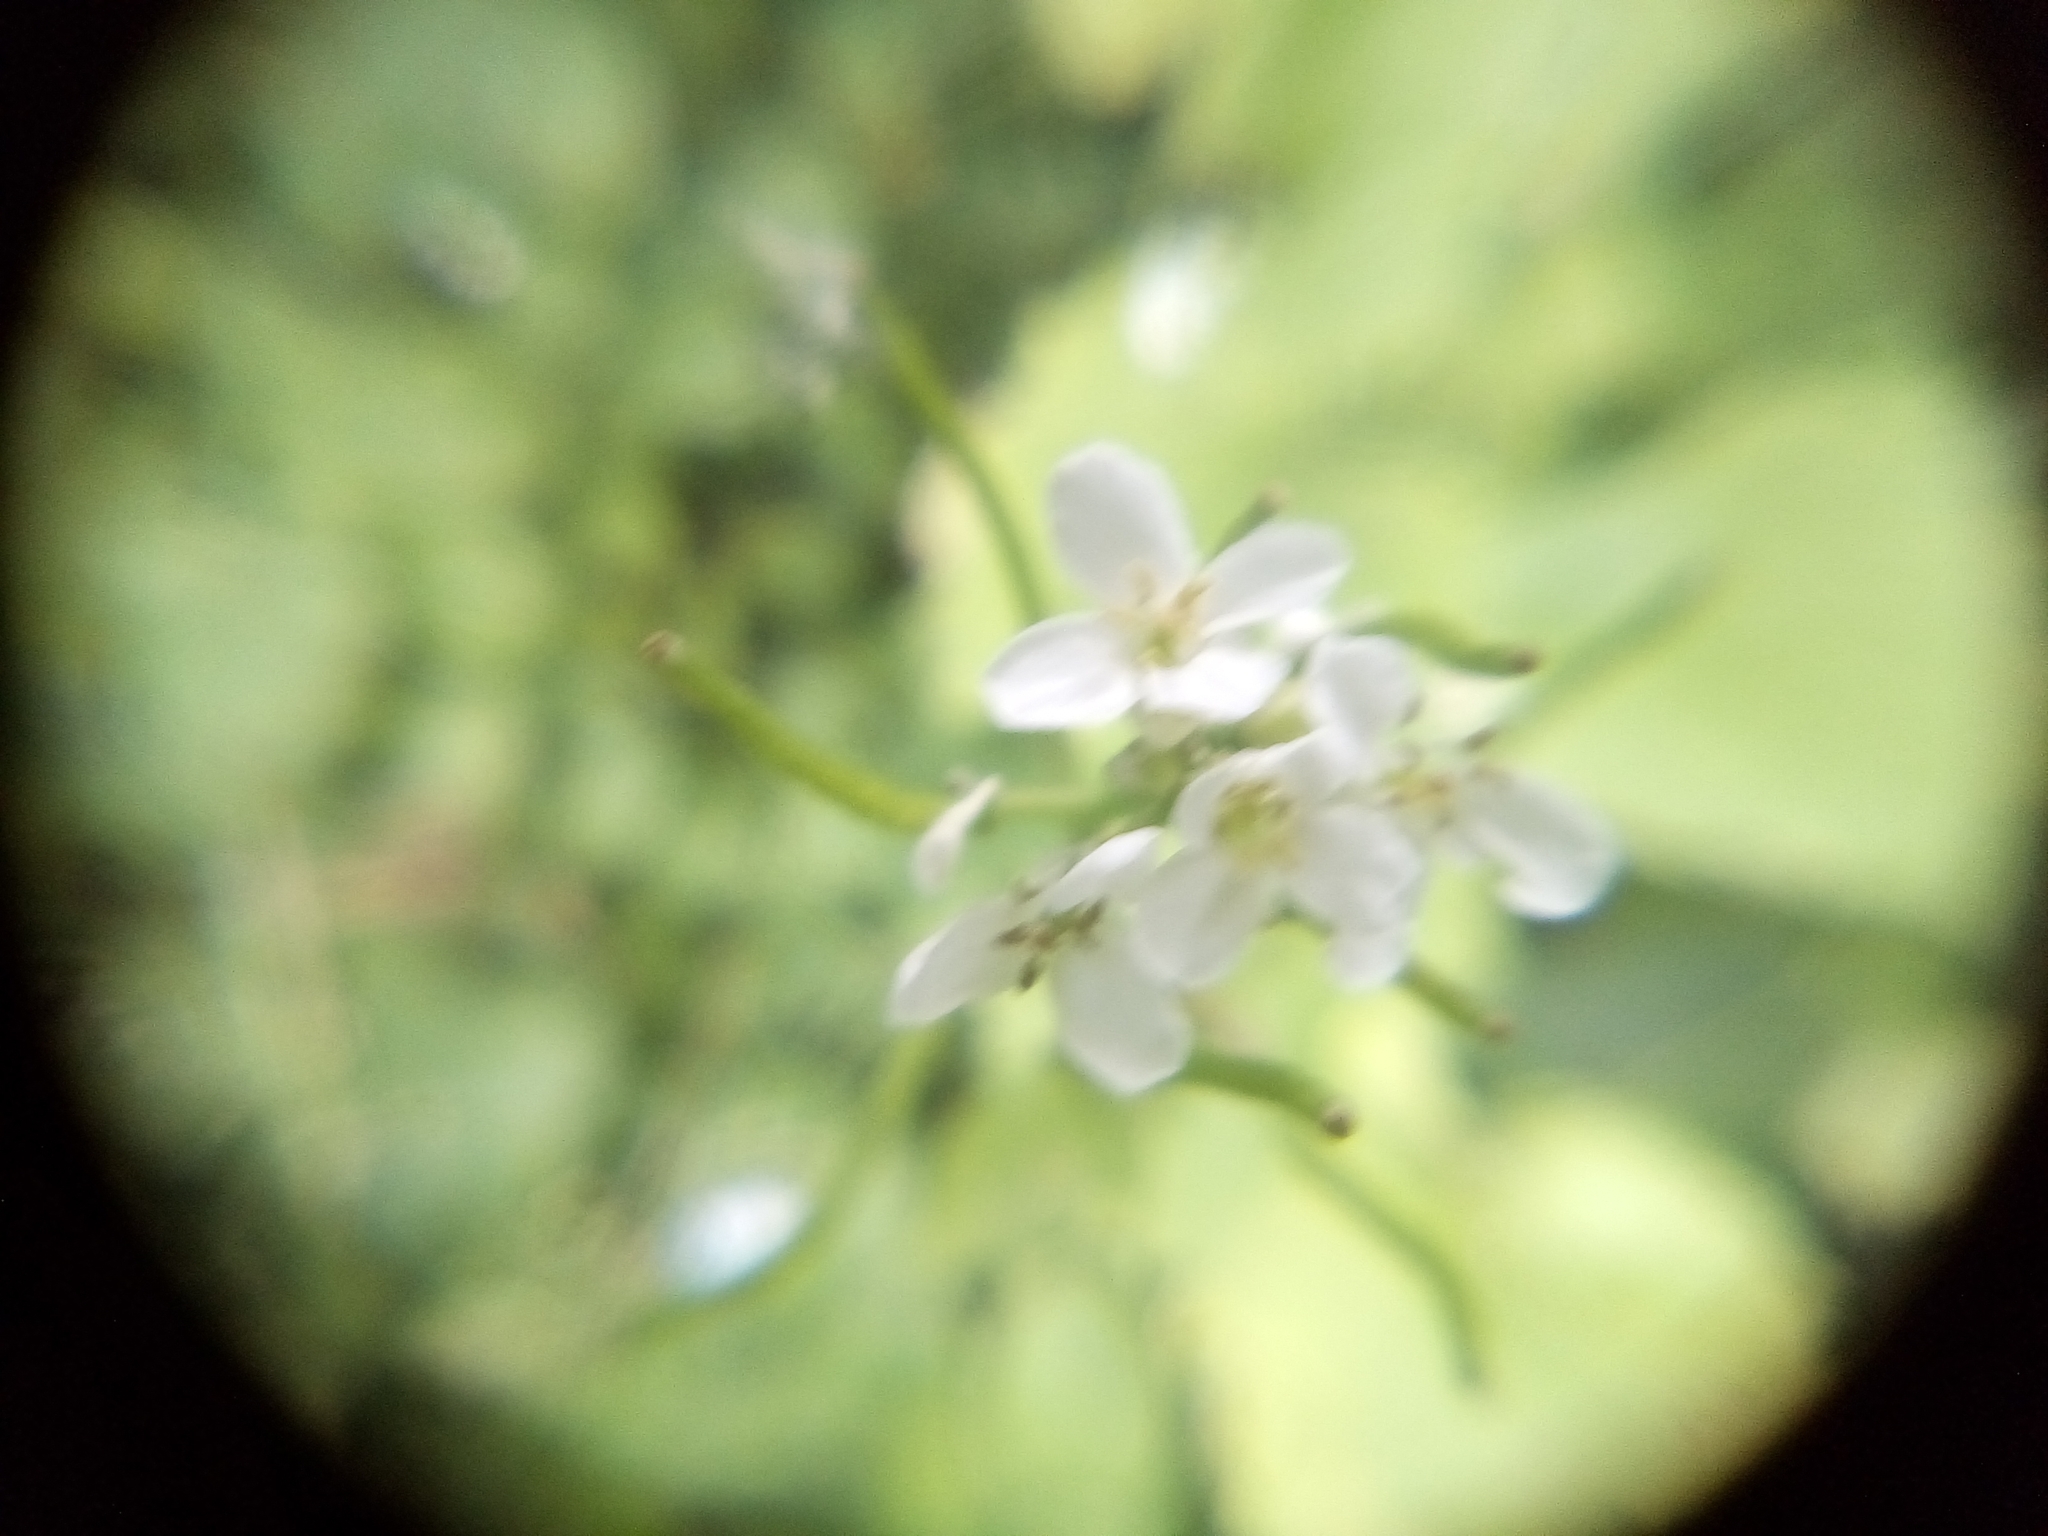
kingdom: Plantae
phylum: Tracheophyta
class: Magnoliopsida
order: Brassicales
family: Brassicaceae
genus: Alliaria
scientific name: Alliaria petiolata
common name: Garlic mustard
